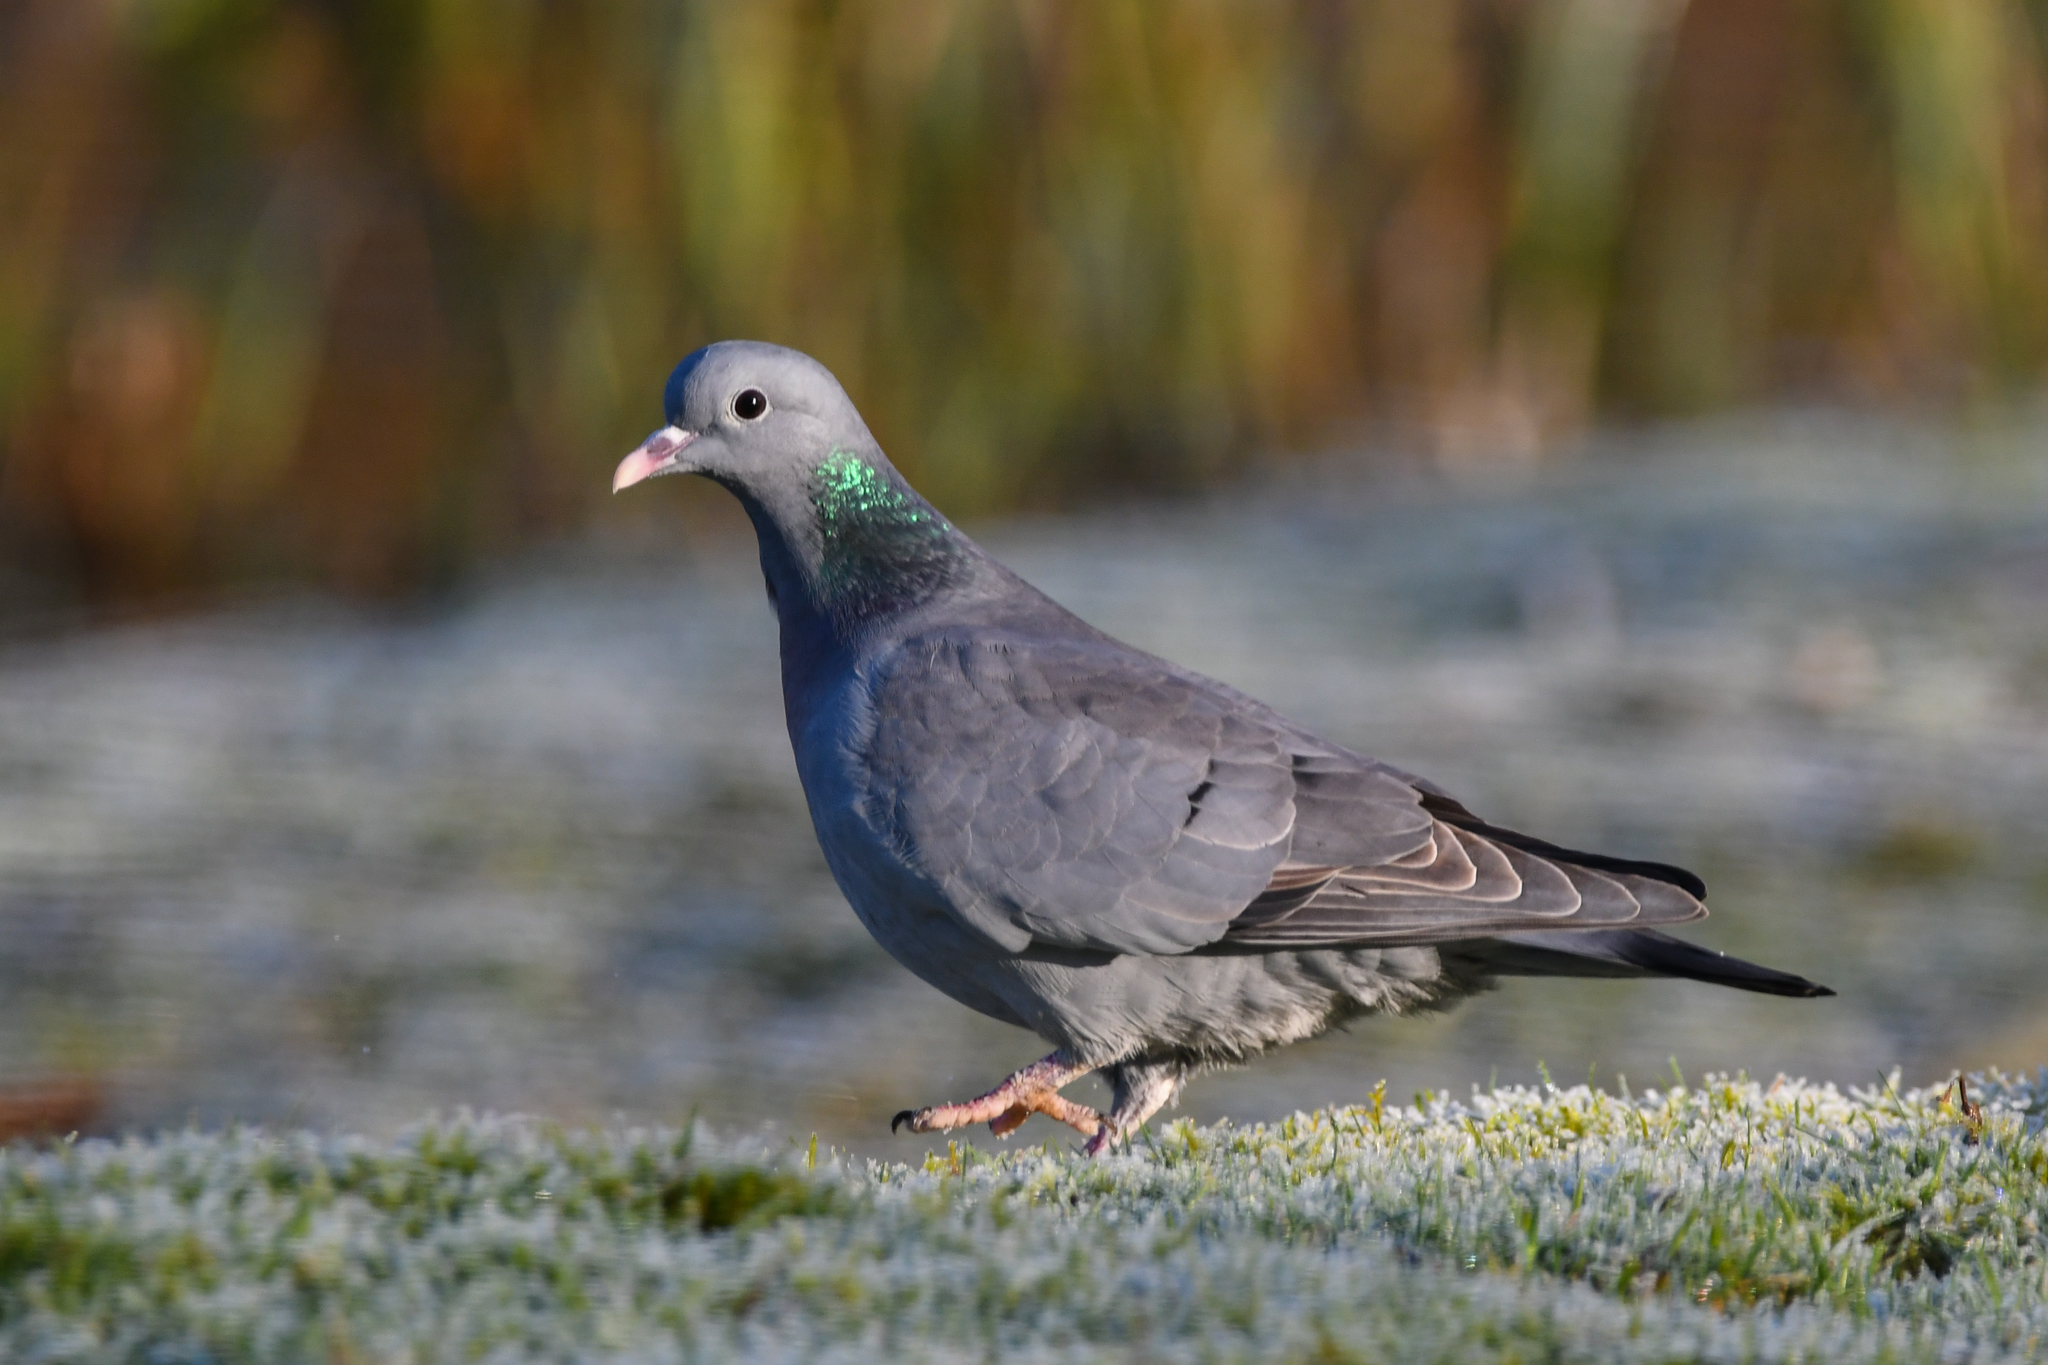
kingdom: Animalia
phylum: Chordata
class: Aves
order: Columbiformes
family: Columbidae
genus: Columba
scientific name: Columba oenas
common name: Stock dove
